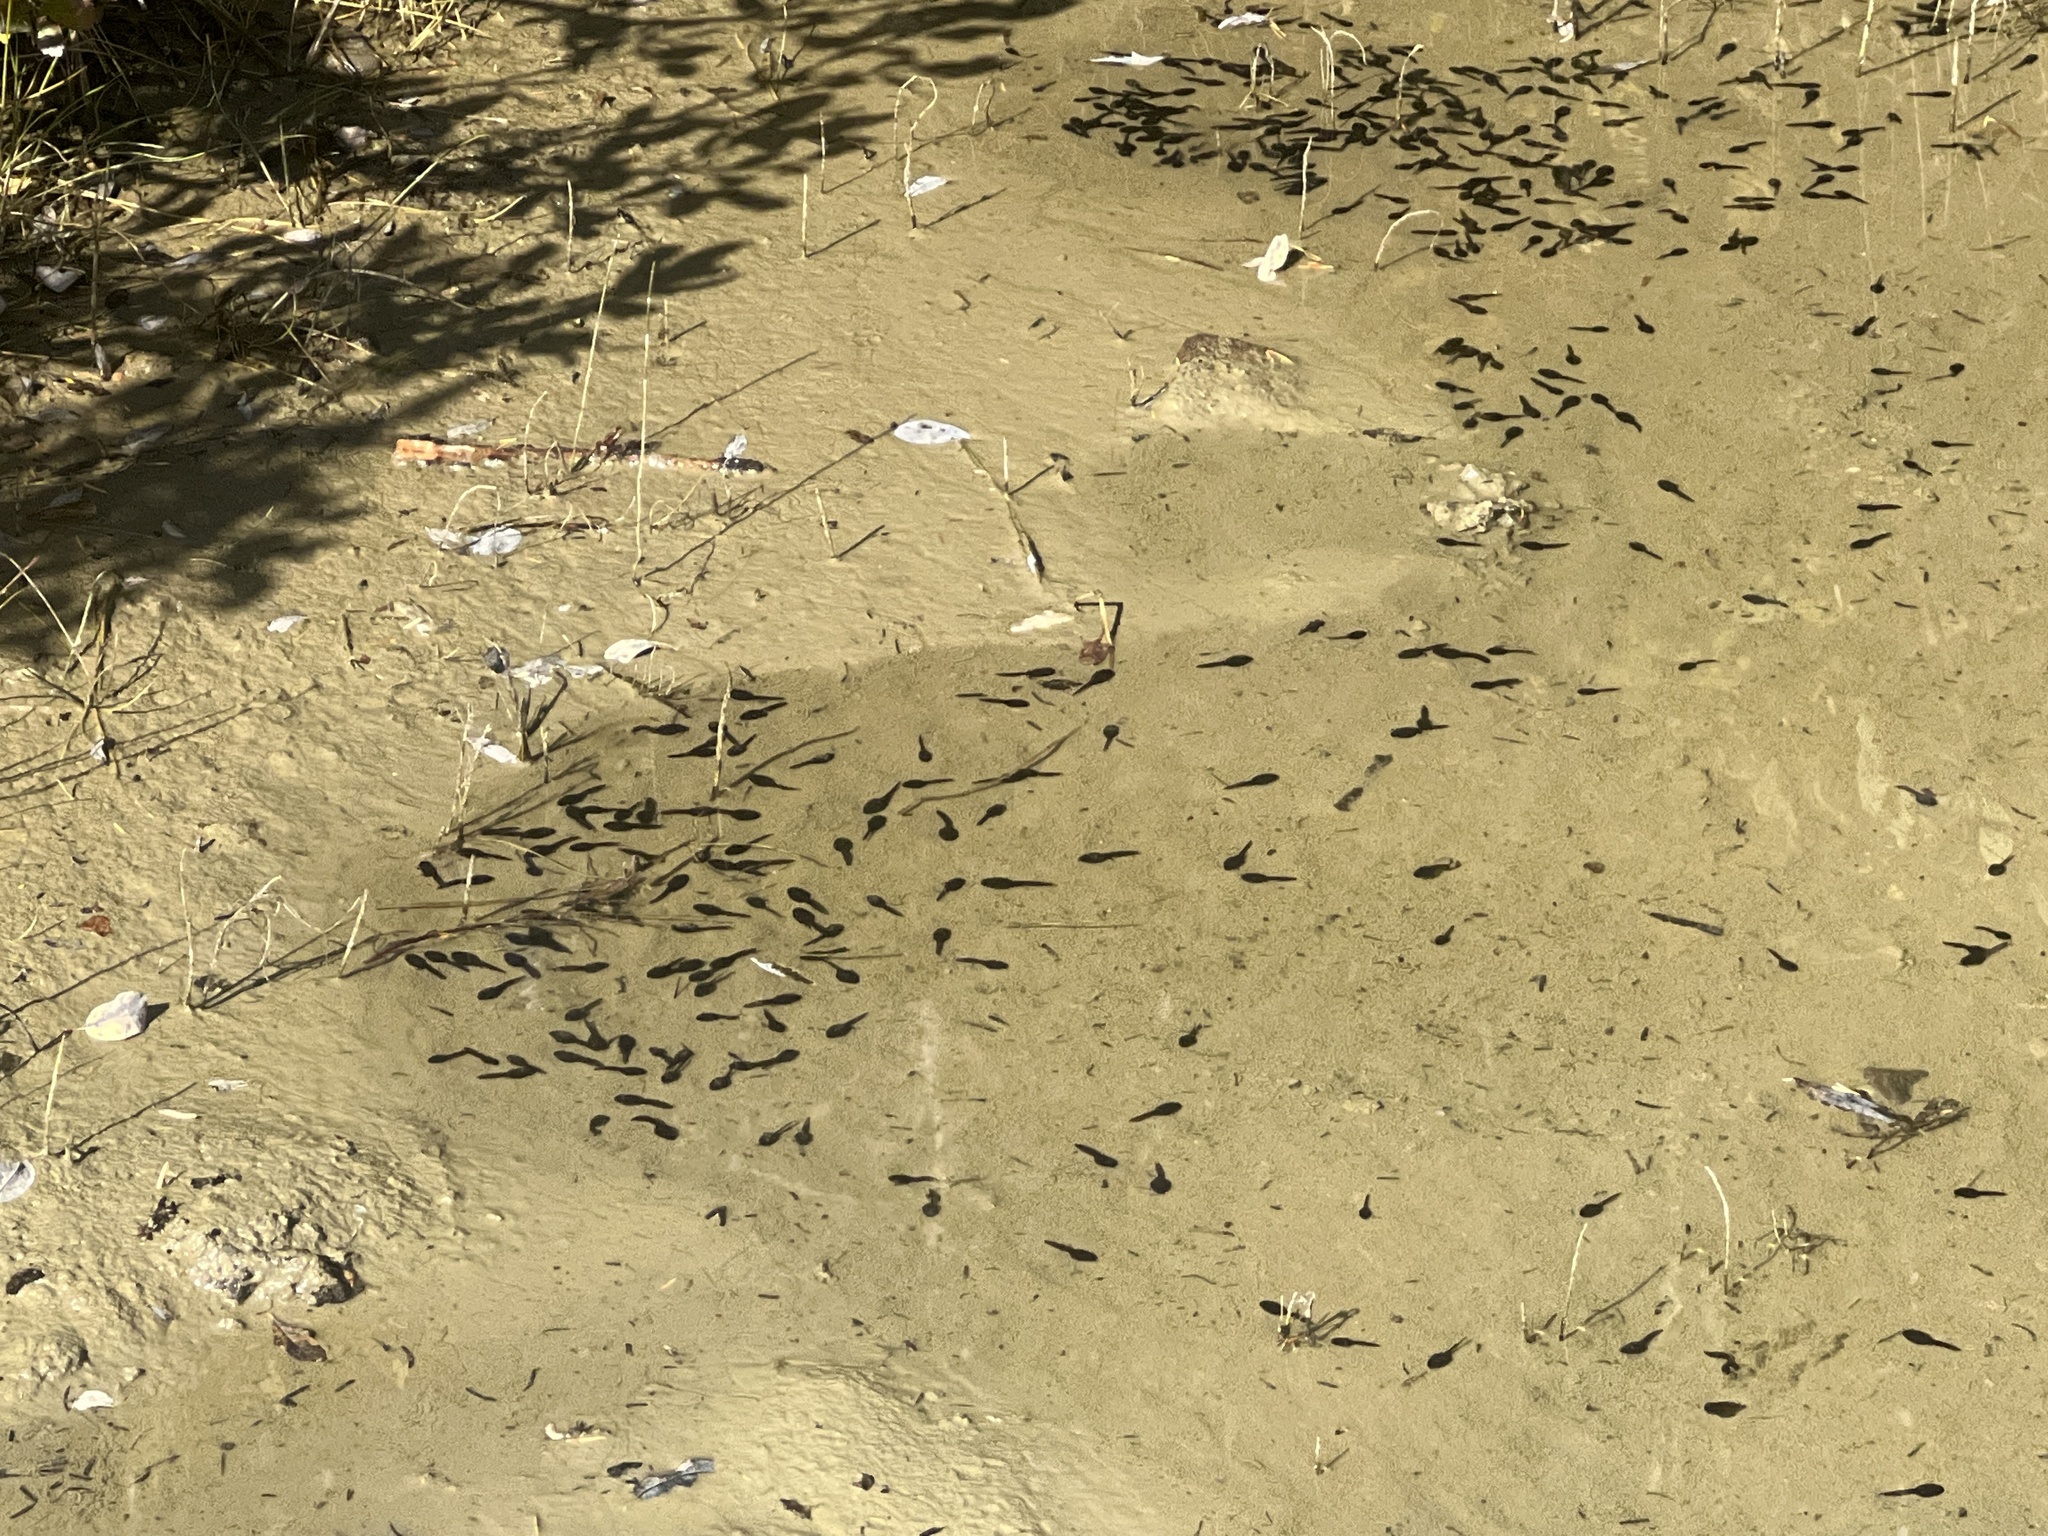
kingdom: Animalia
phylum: Chordata
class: Amphibia
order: Anura
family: Bufonidae
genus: Anaxyrus
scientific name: Anaxyrus boreas
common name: Western toad
